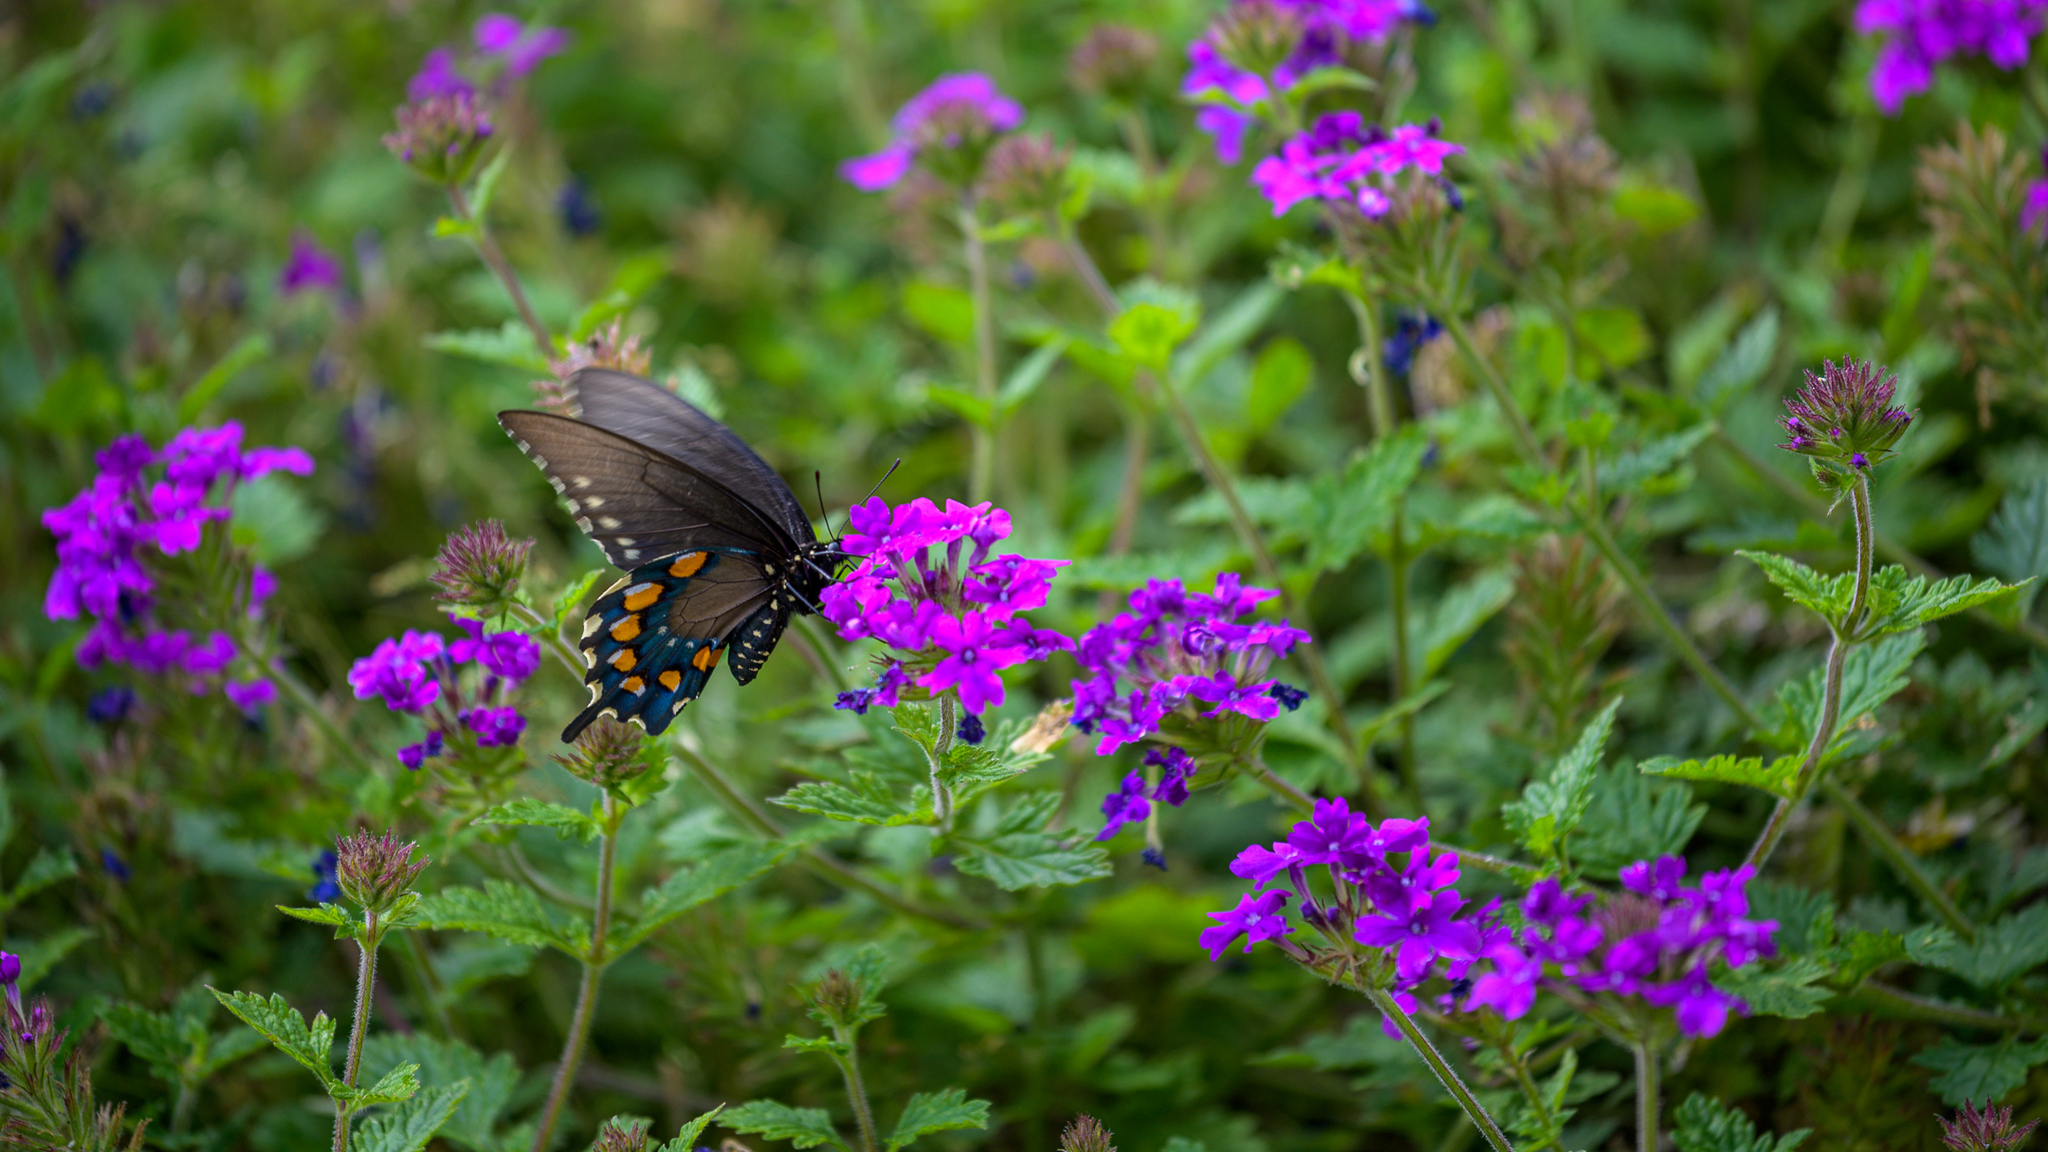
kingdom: Animalia
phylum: Arthropoda
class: Insecta
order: Lepidoptera
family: Papilionidae
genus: Battus
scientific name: Battus philenor
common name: Pipevine swallowtail
